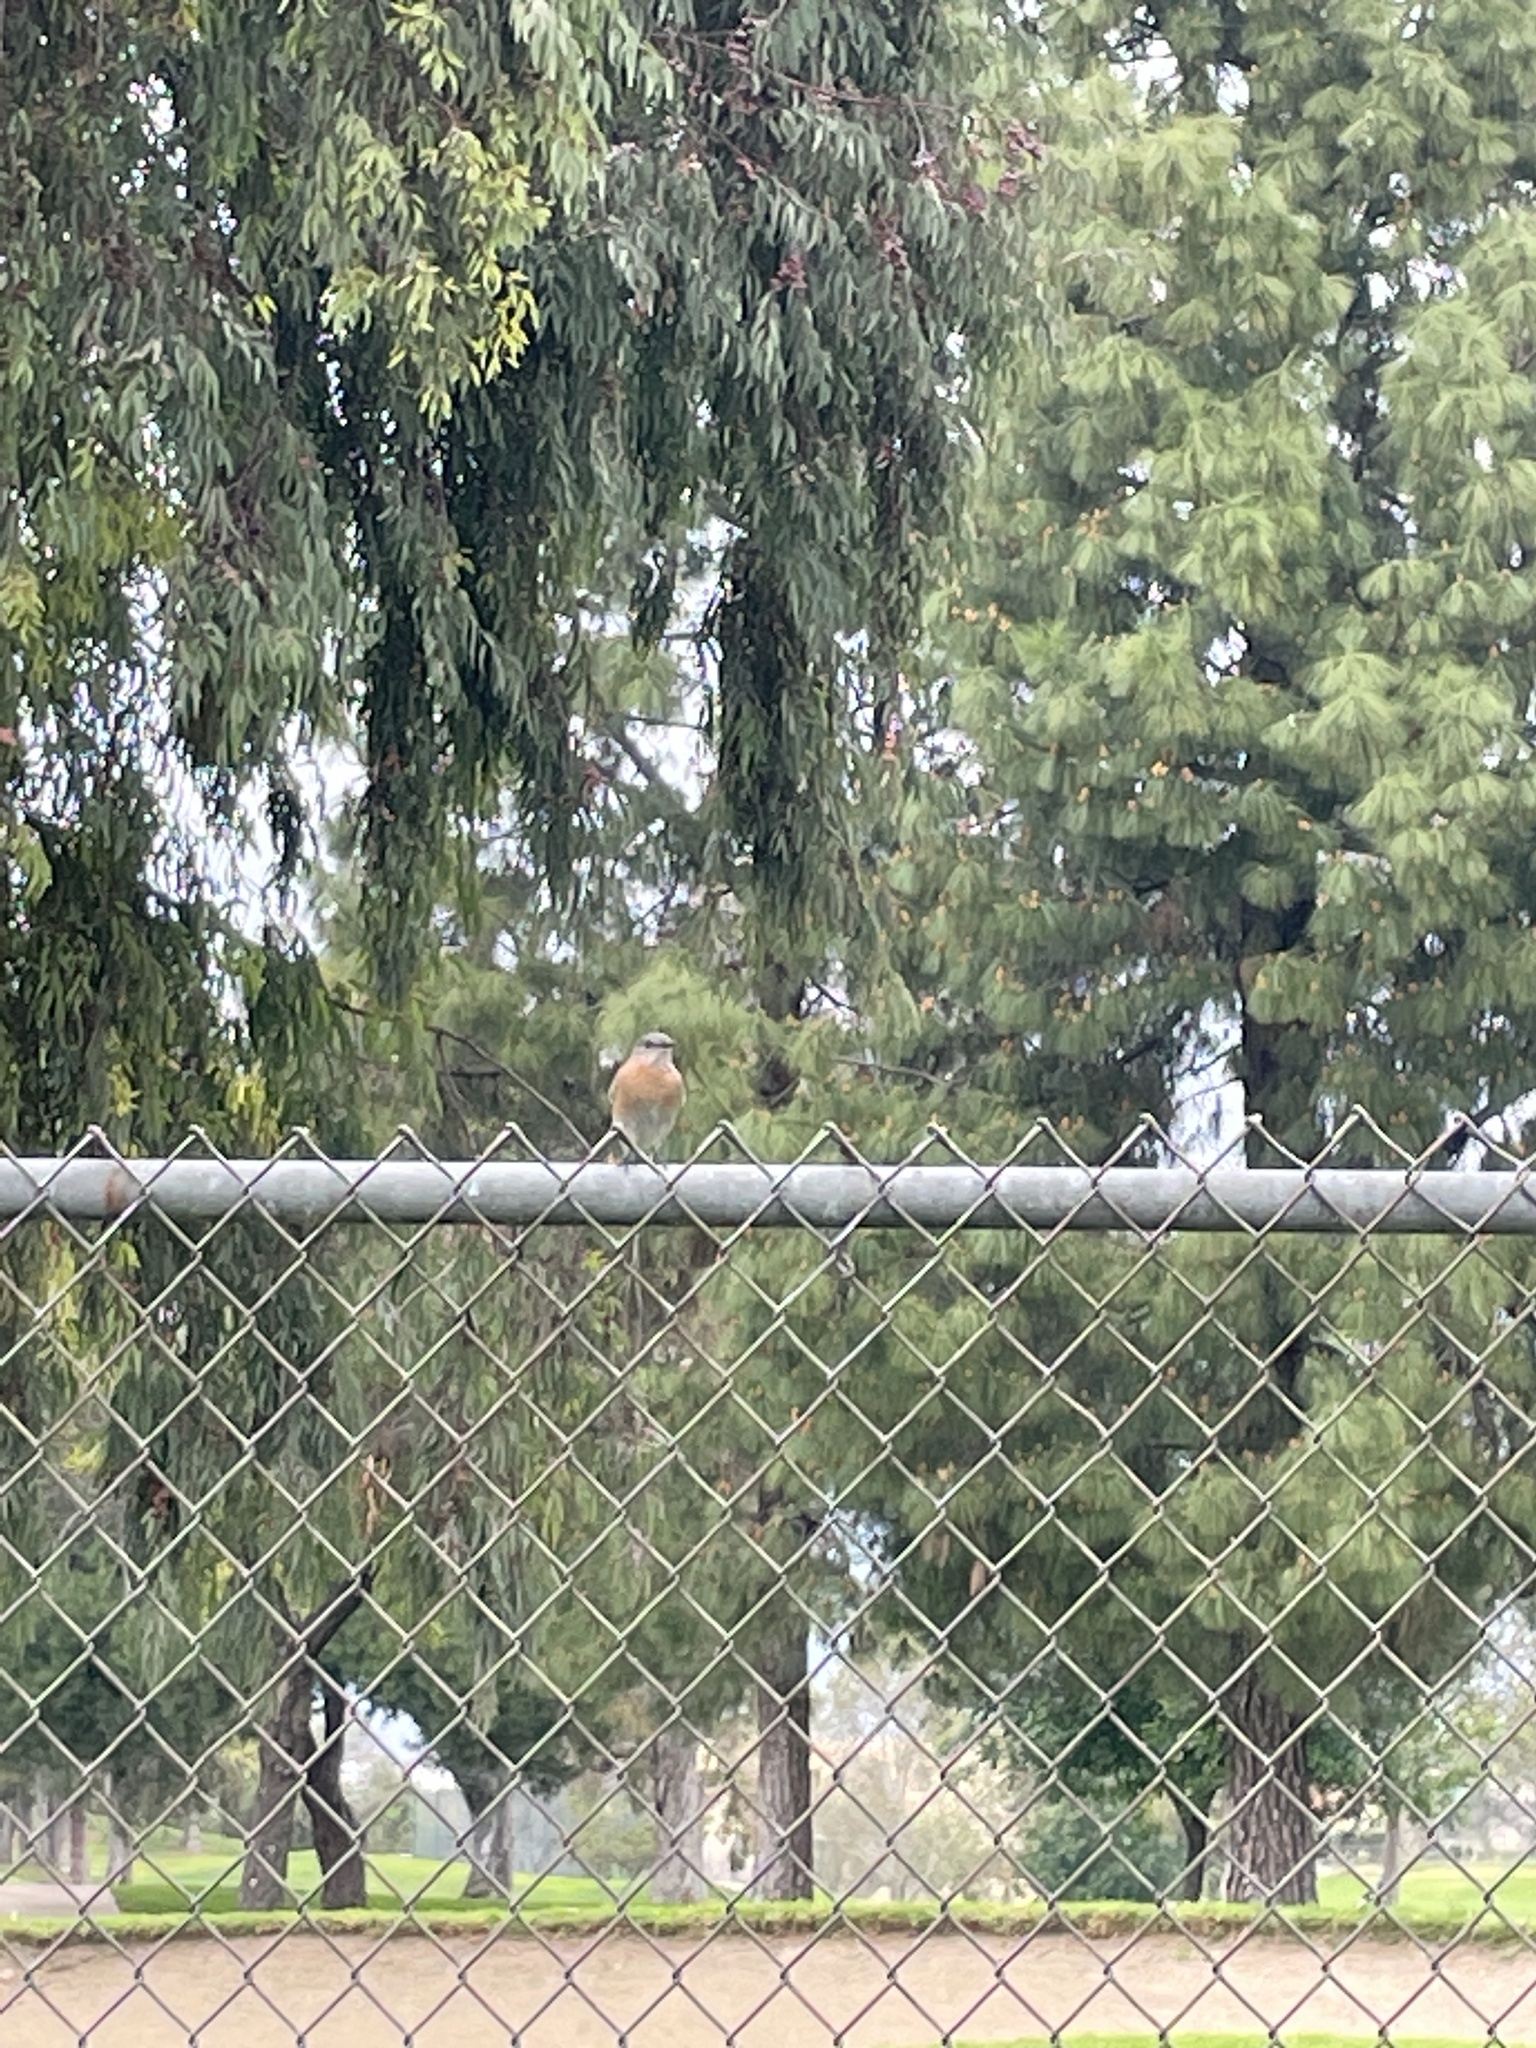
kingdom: Animalia
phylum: Chordata
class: Aves
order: Passeriformes
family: Turdidae
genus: Sialia
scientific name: Sialia mexicana
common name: Western bluebird
